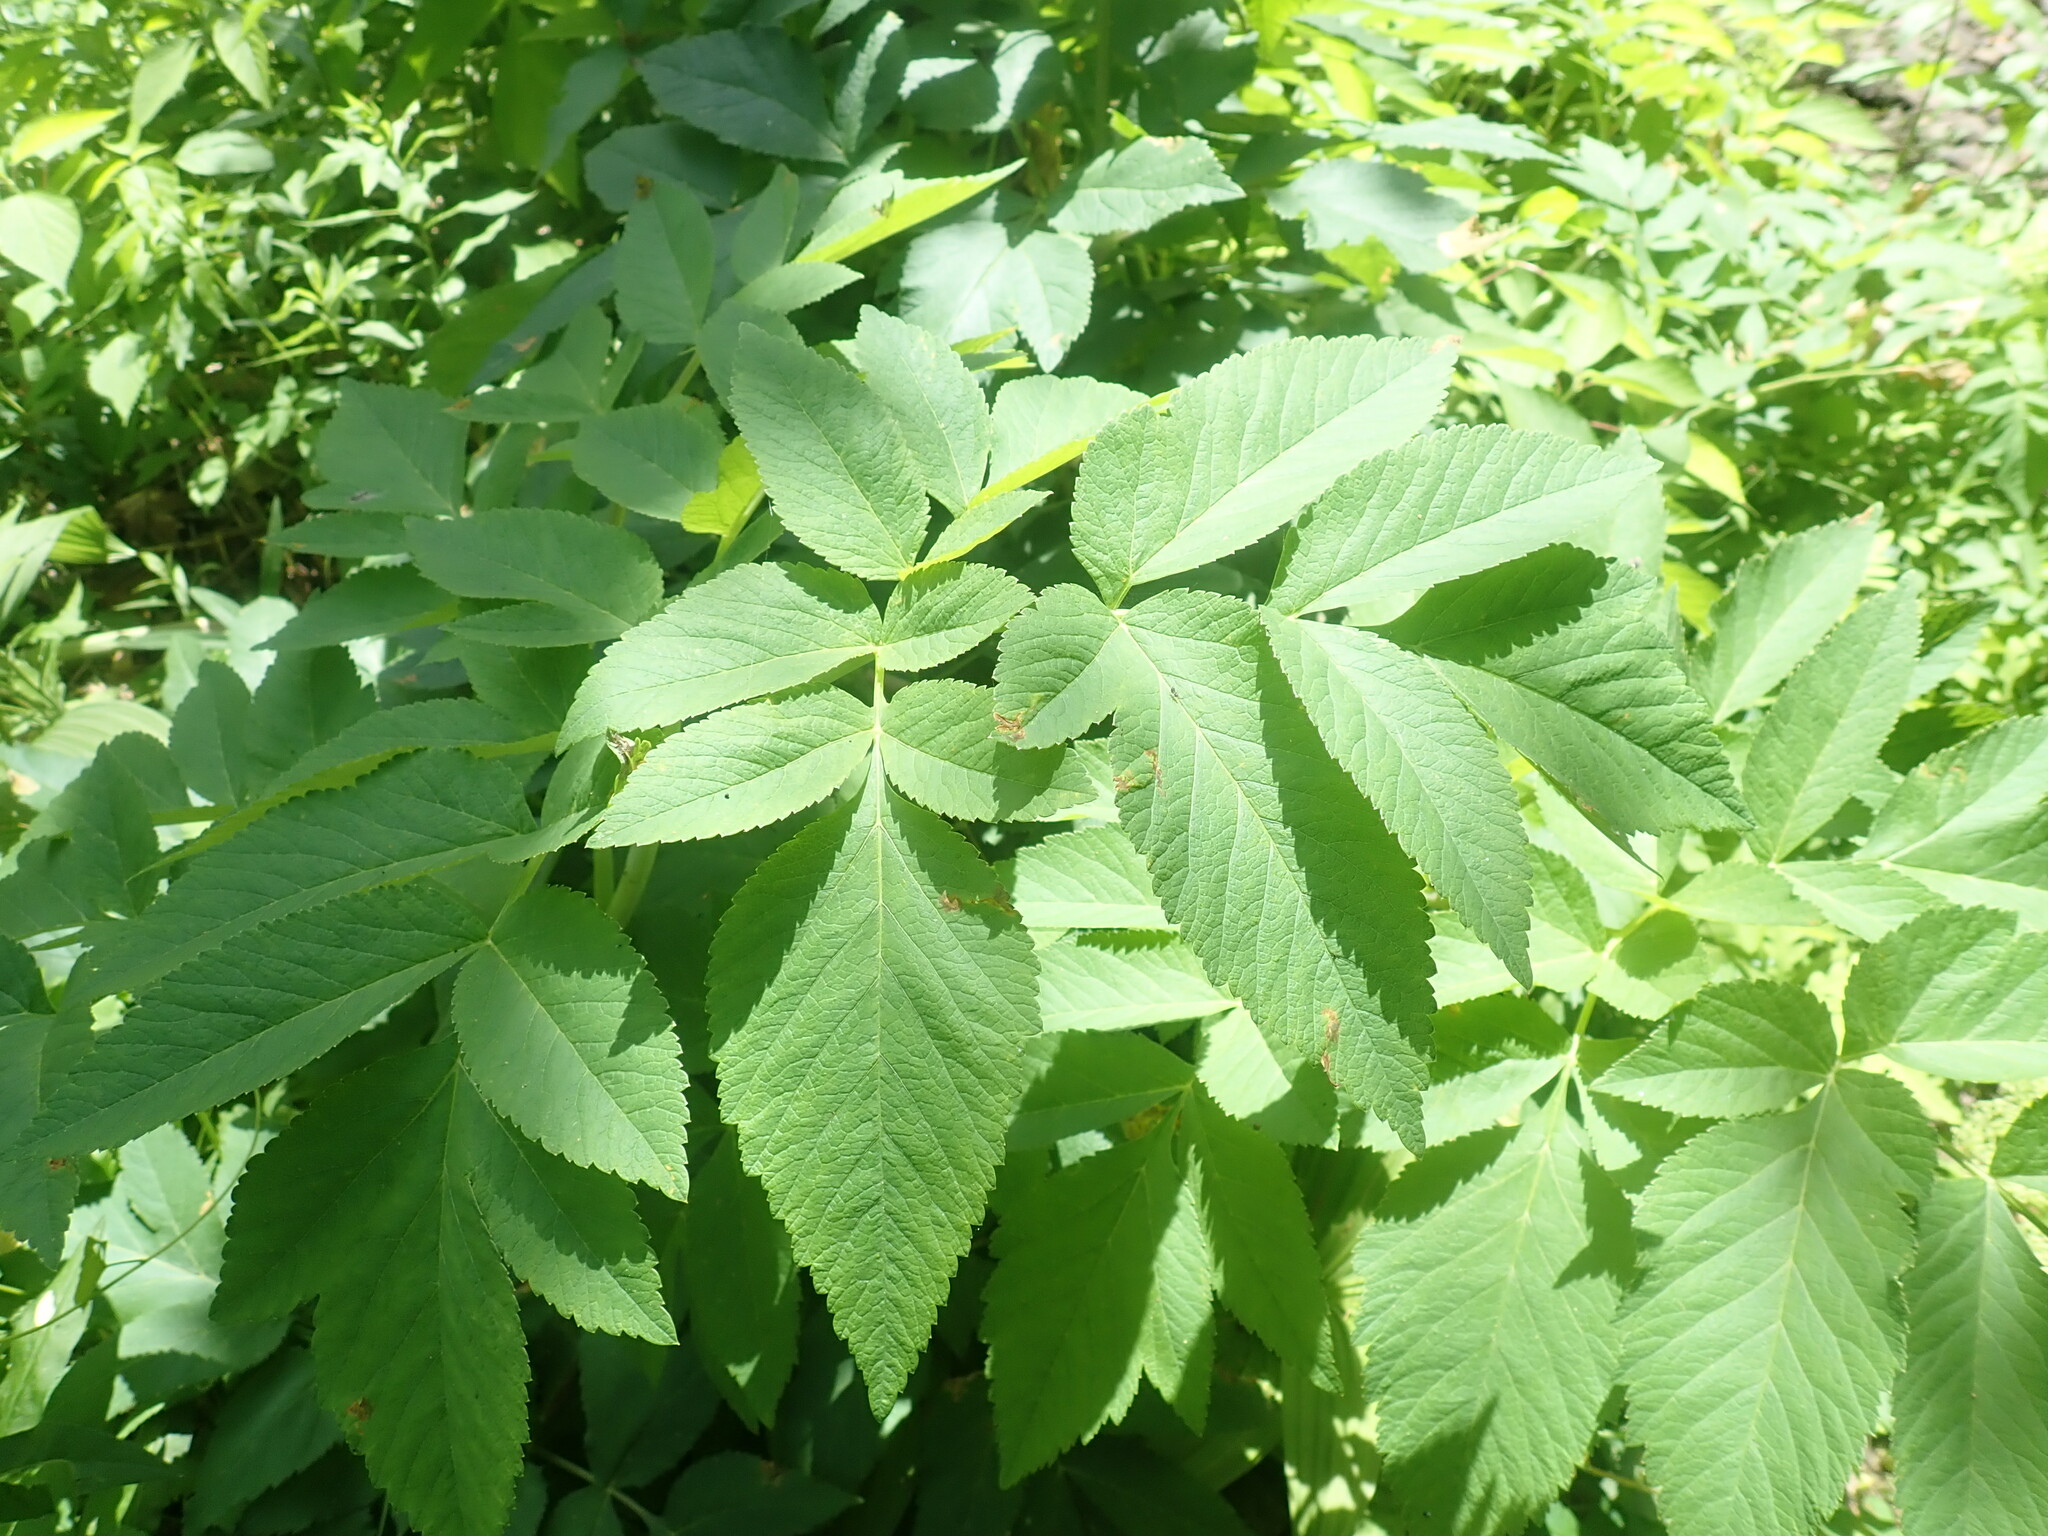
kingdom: Plantae
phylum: Tracheophyta
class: Magnoliopsida
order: Apiales
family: Apiaceae
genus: Angelica
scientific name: Angelica atropurpurea
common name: Great angelica
